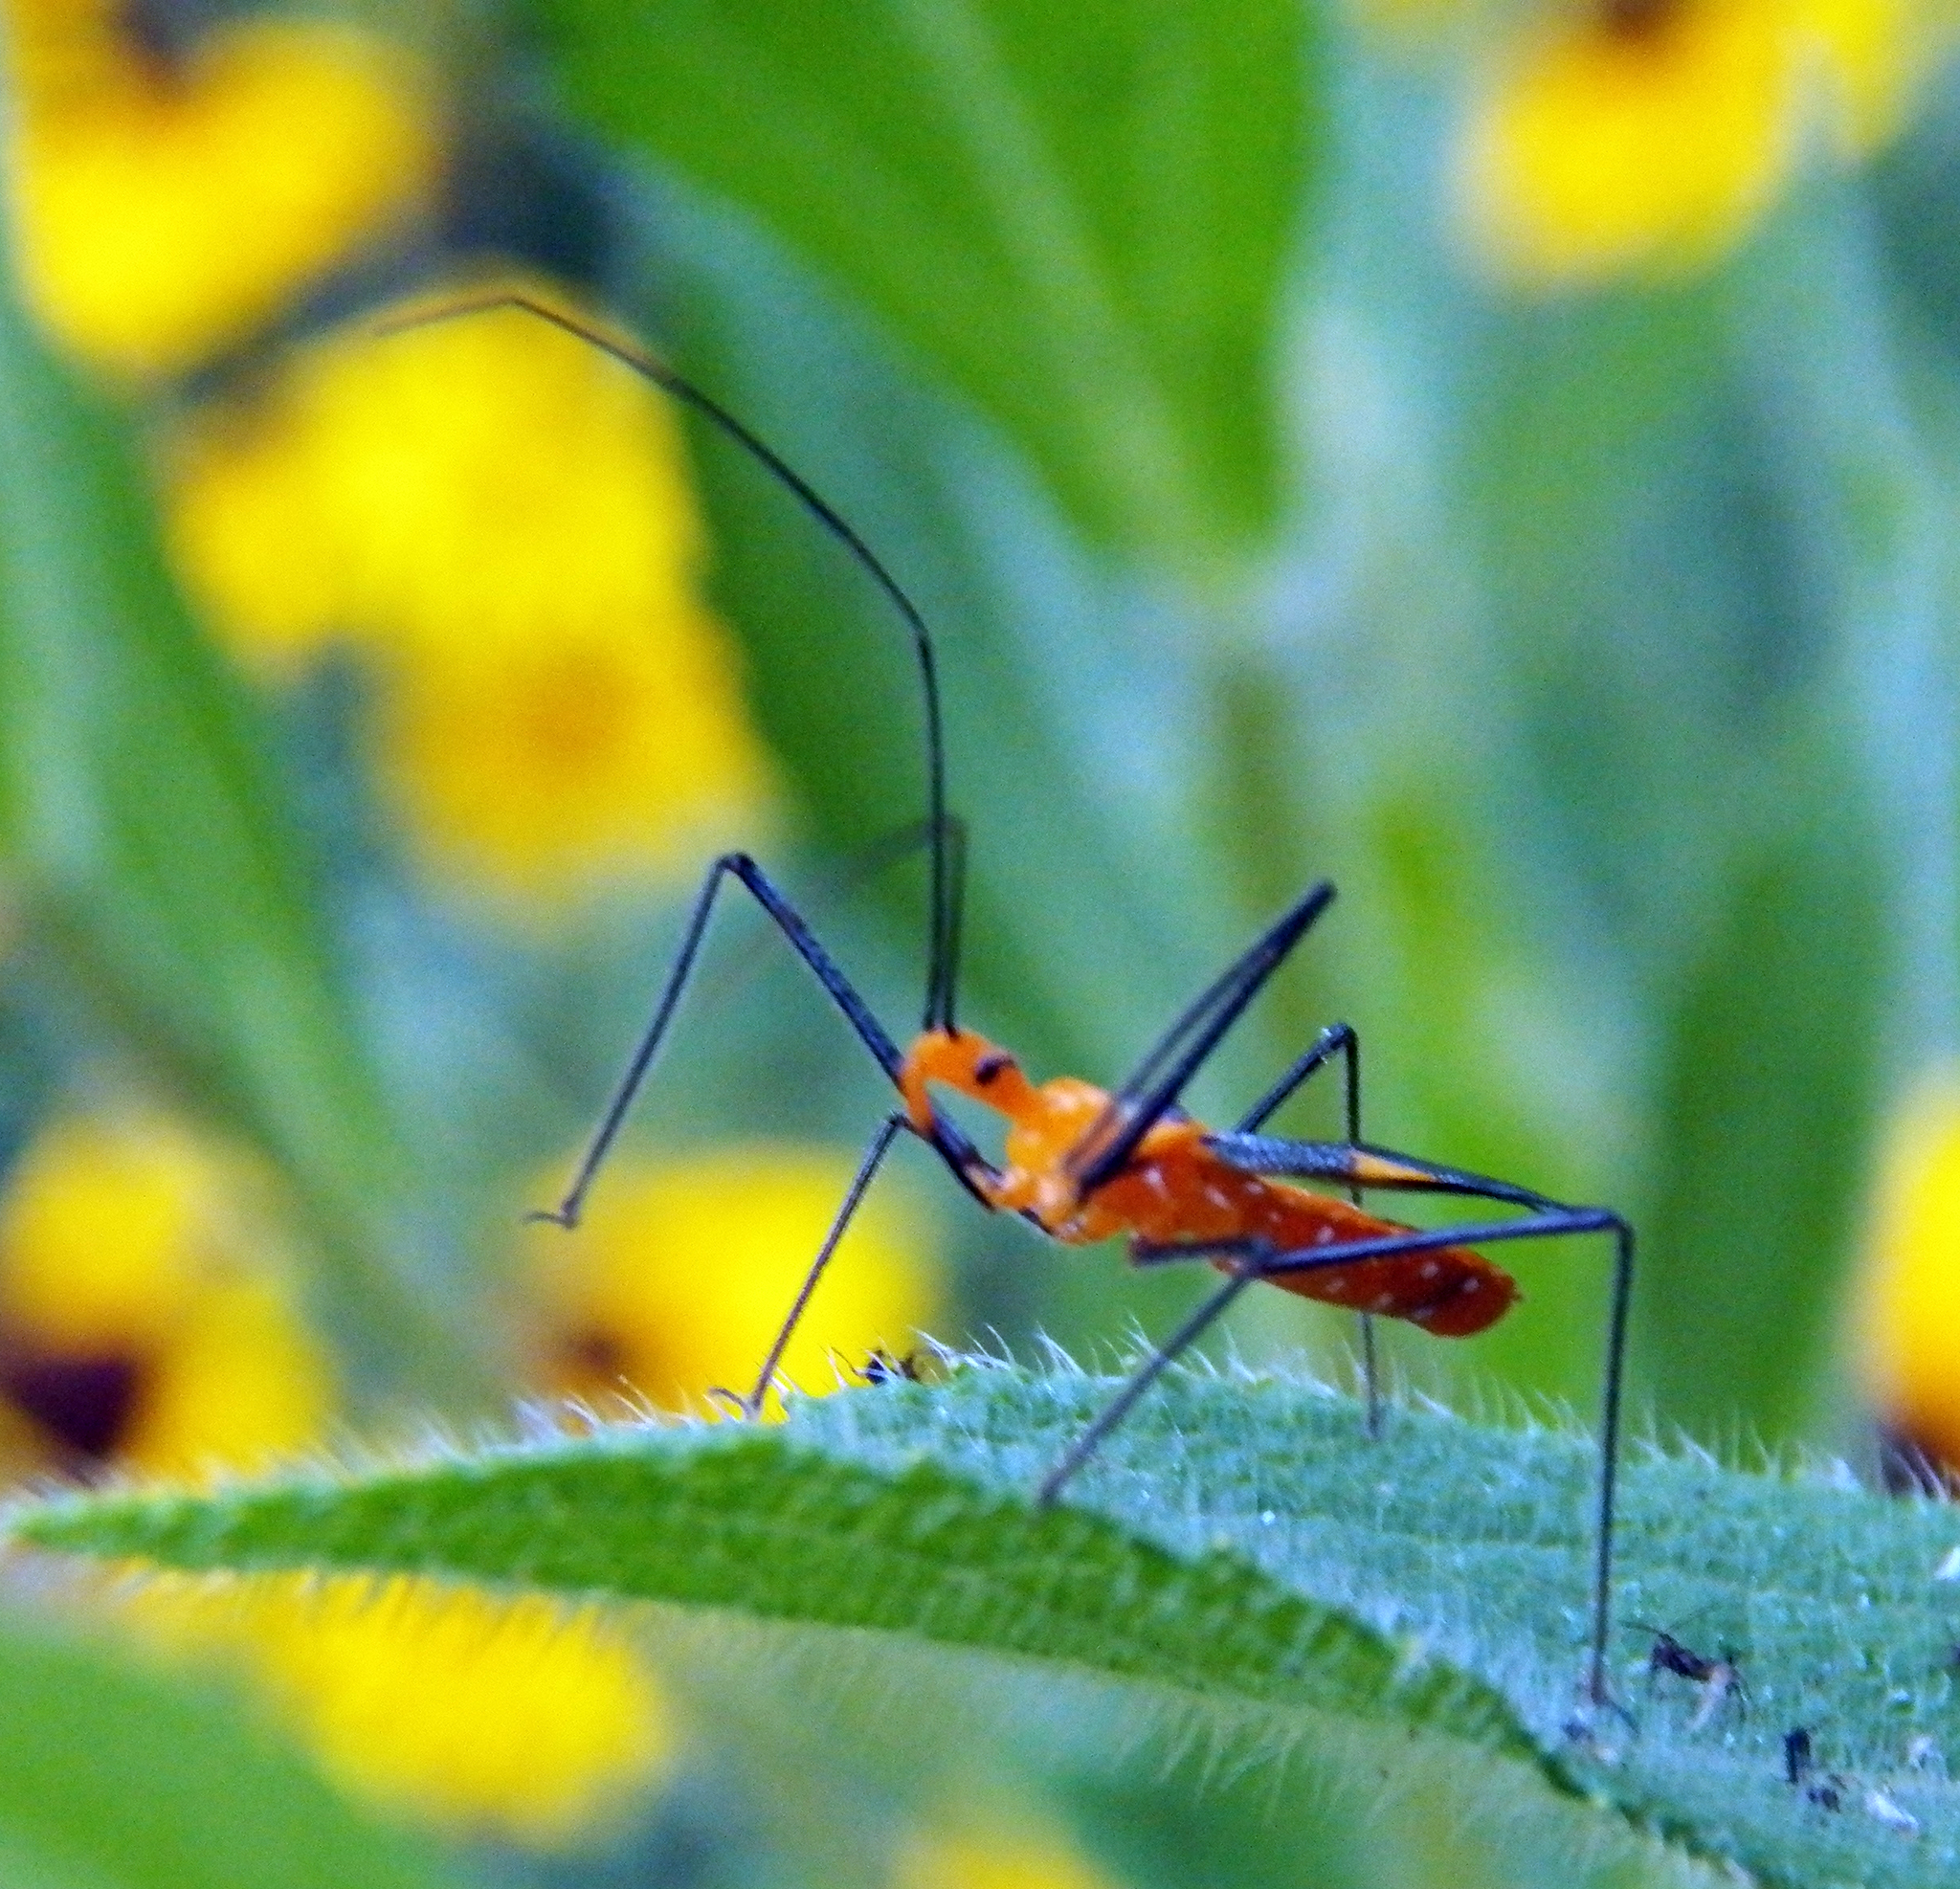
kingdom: Animalia
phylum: Arthropoda
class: Insecta
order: Hemiptera
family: Reduviidae
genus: Zelus
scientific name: Zelus longipes
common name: Milkweed assassin bug
